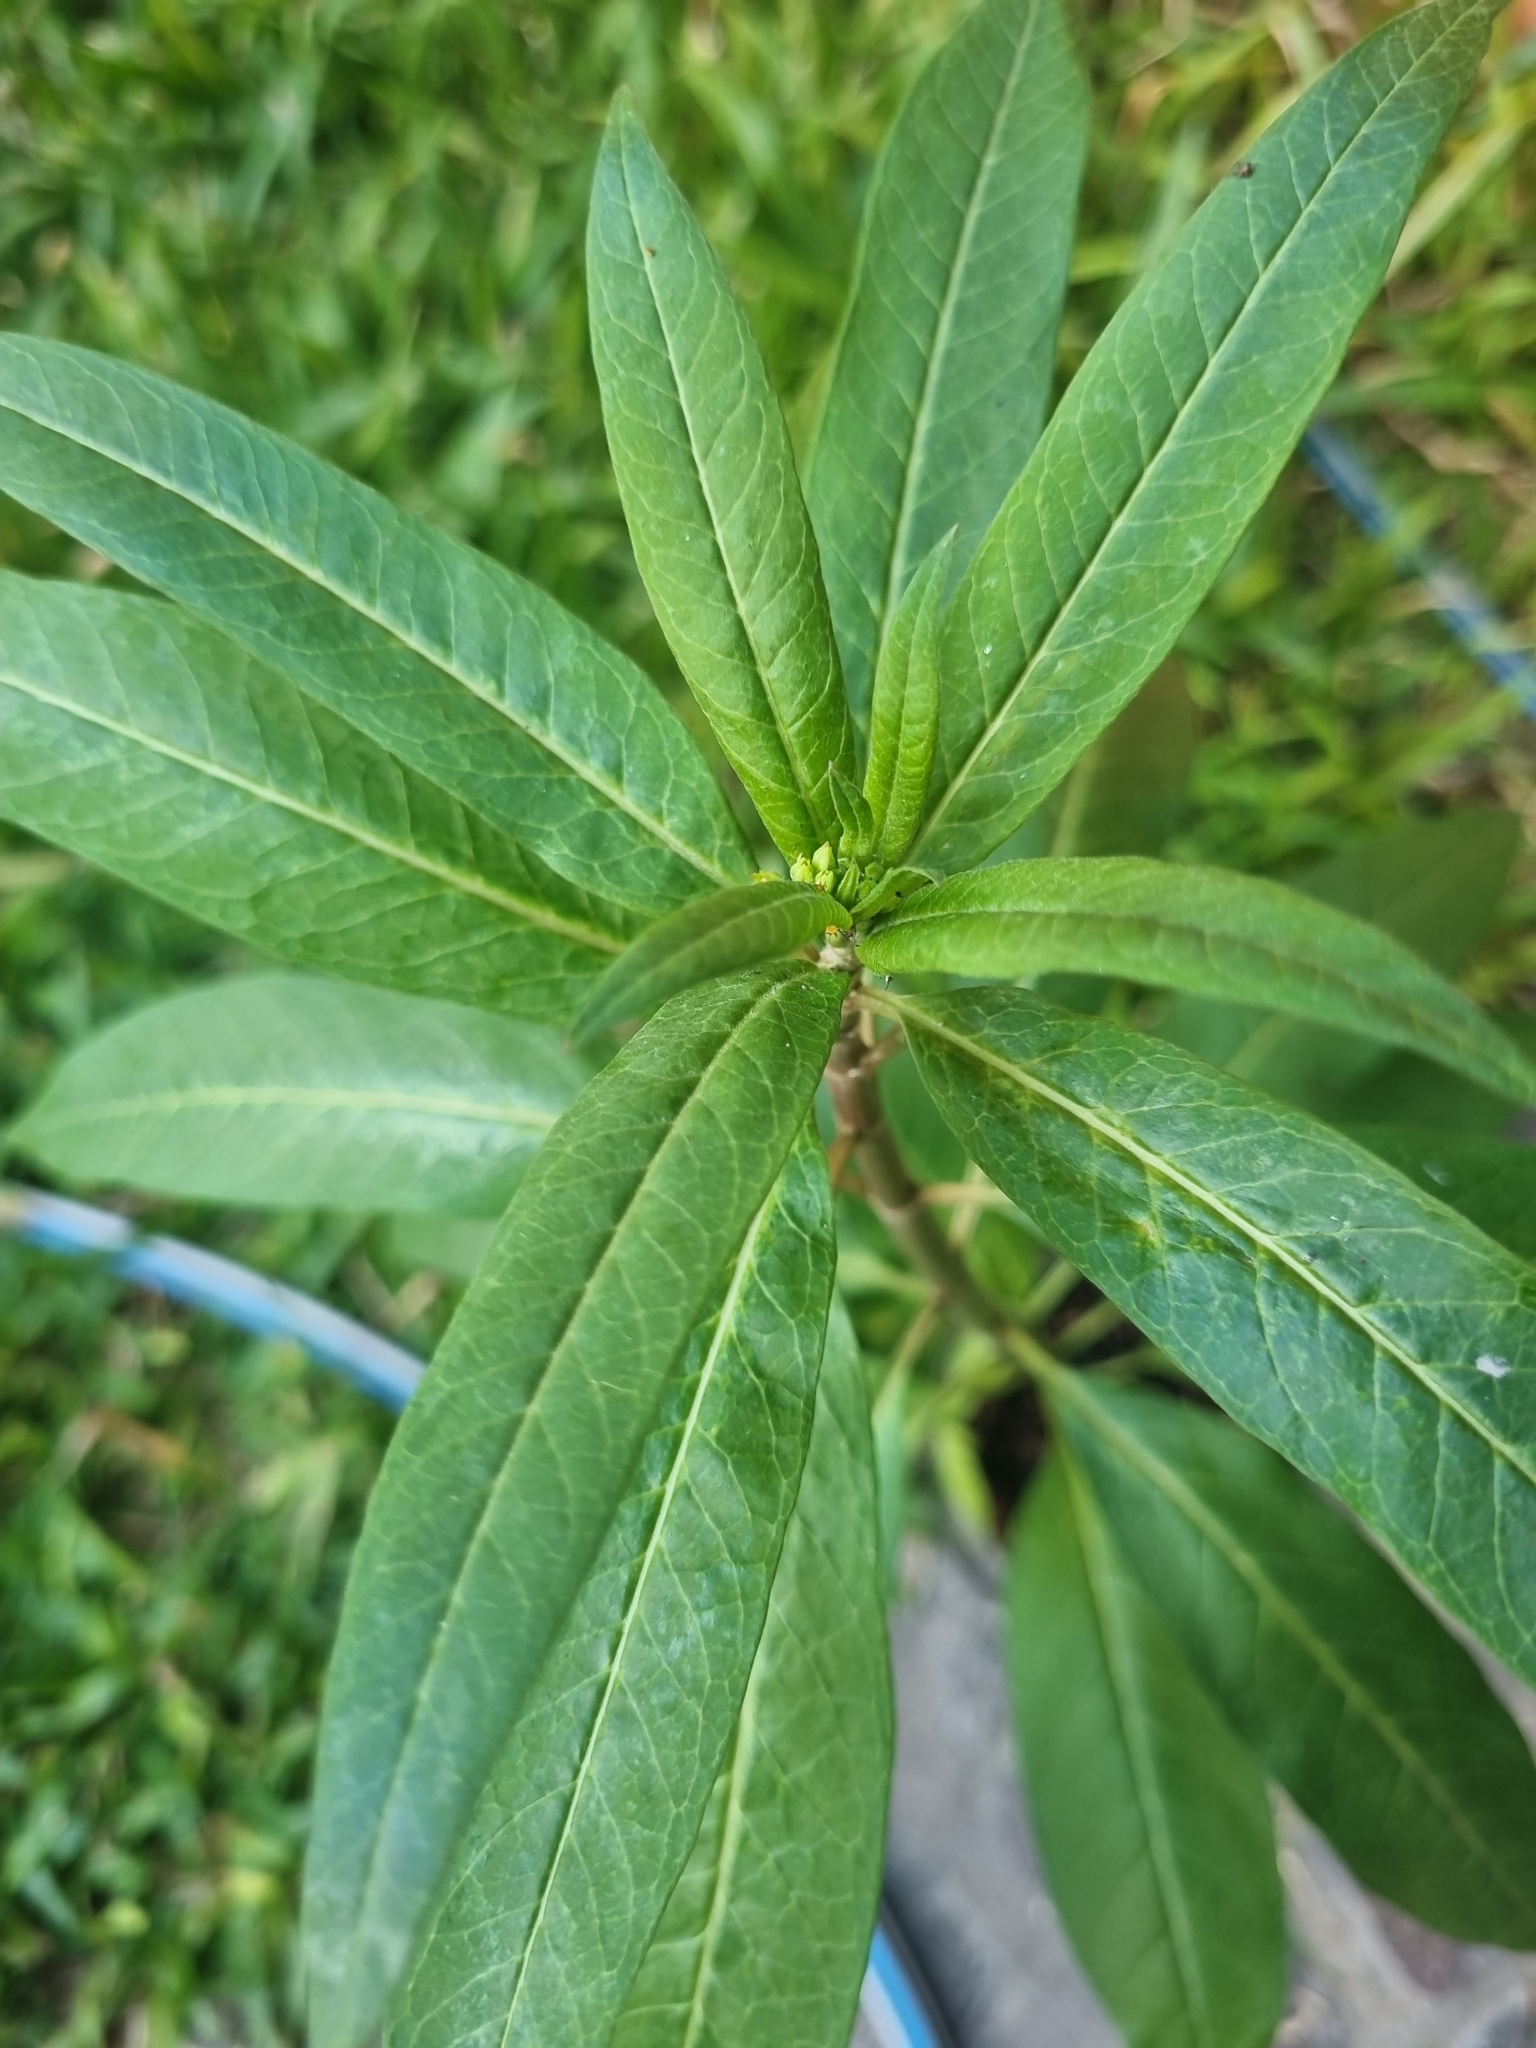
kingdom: Plantae
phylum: Tracheophyta
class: Magnoliopsida
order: Gentianales
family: Apocynaceae
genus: Asclepias
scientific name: Asclepias curassavica
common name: Bloodflower
